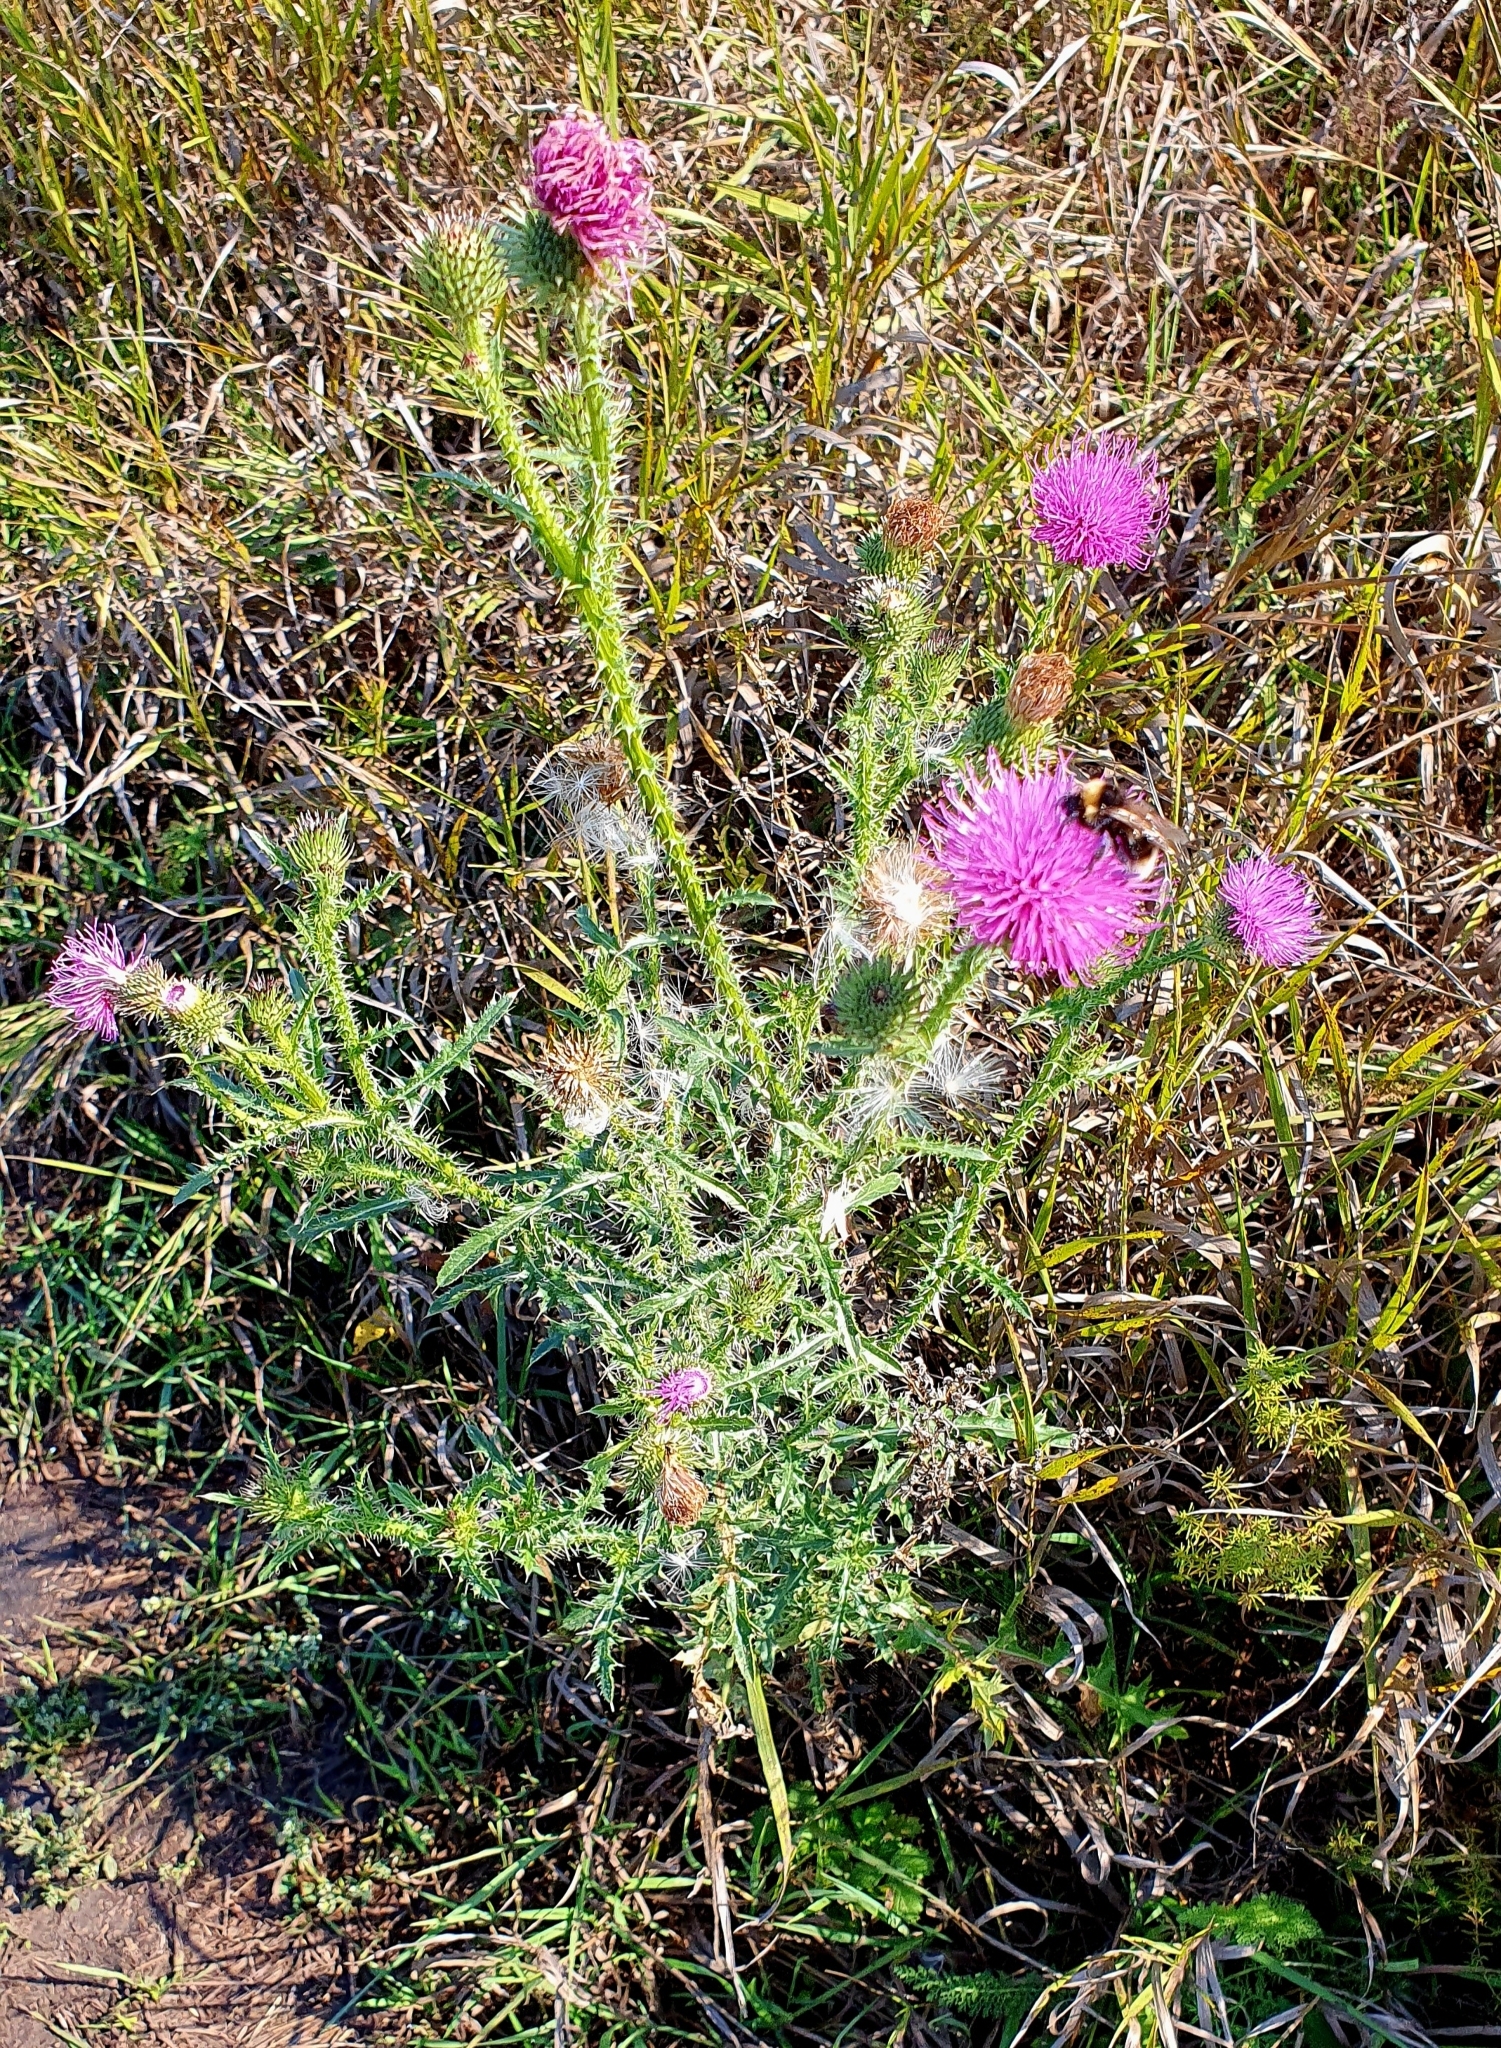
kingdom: Plantae
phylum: Tracheophyta
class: Magnoliopsida
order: Asterales
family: Asteraceae
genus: Carduus
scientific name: Carduus acanthoides
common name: Plumeless thistle
